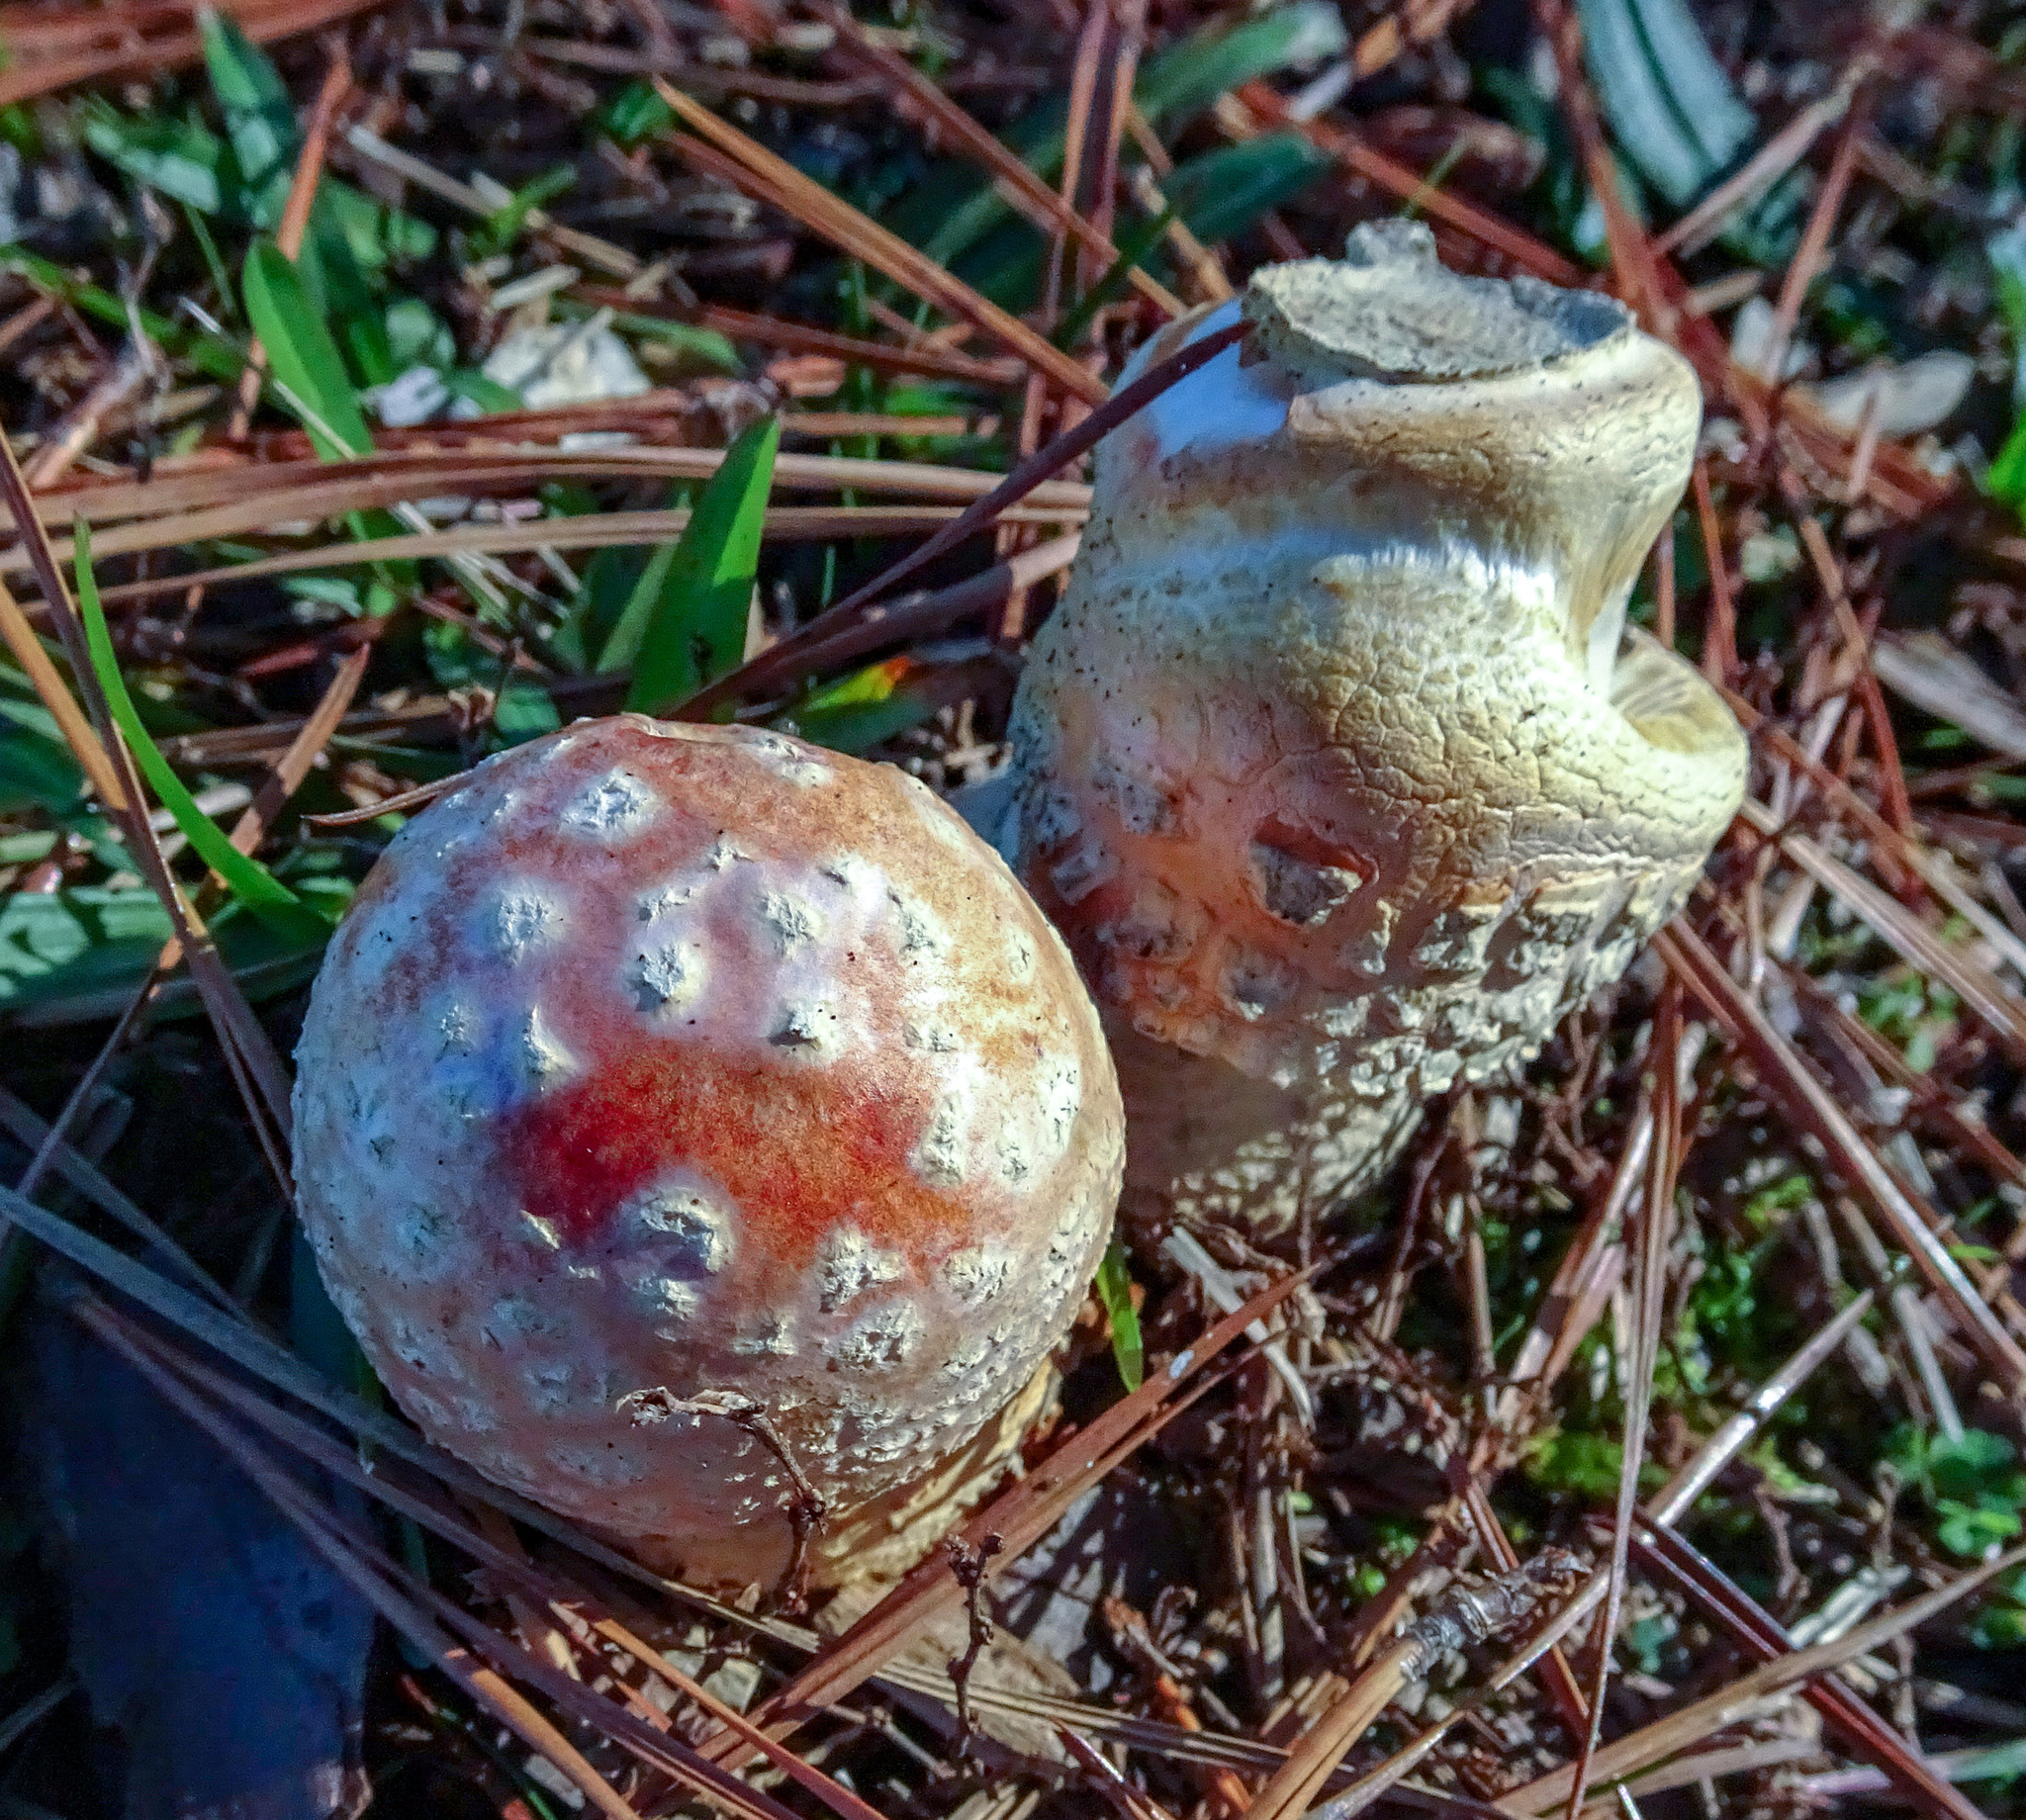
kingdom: Fungi
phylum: Basidiomycota
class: Agaricomycetes
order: Agaricales
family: Amanitaceae
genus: Amanita
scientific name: Amanita persicina
